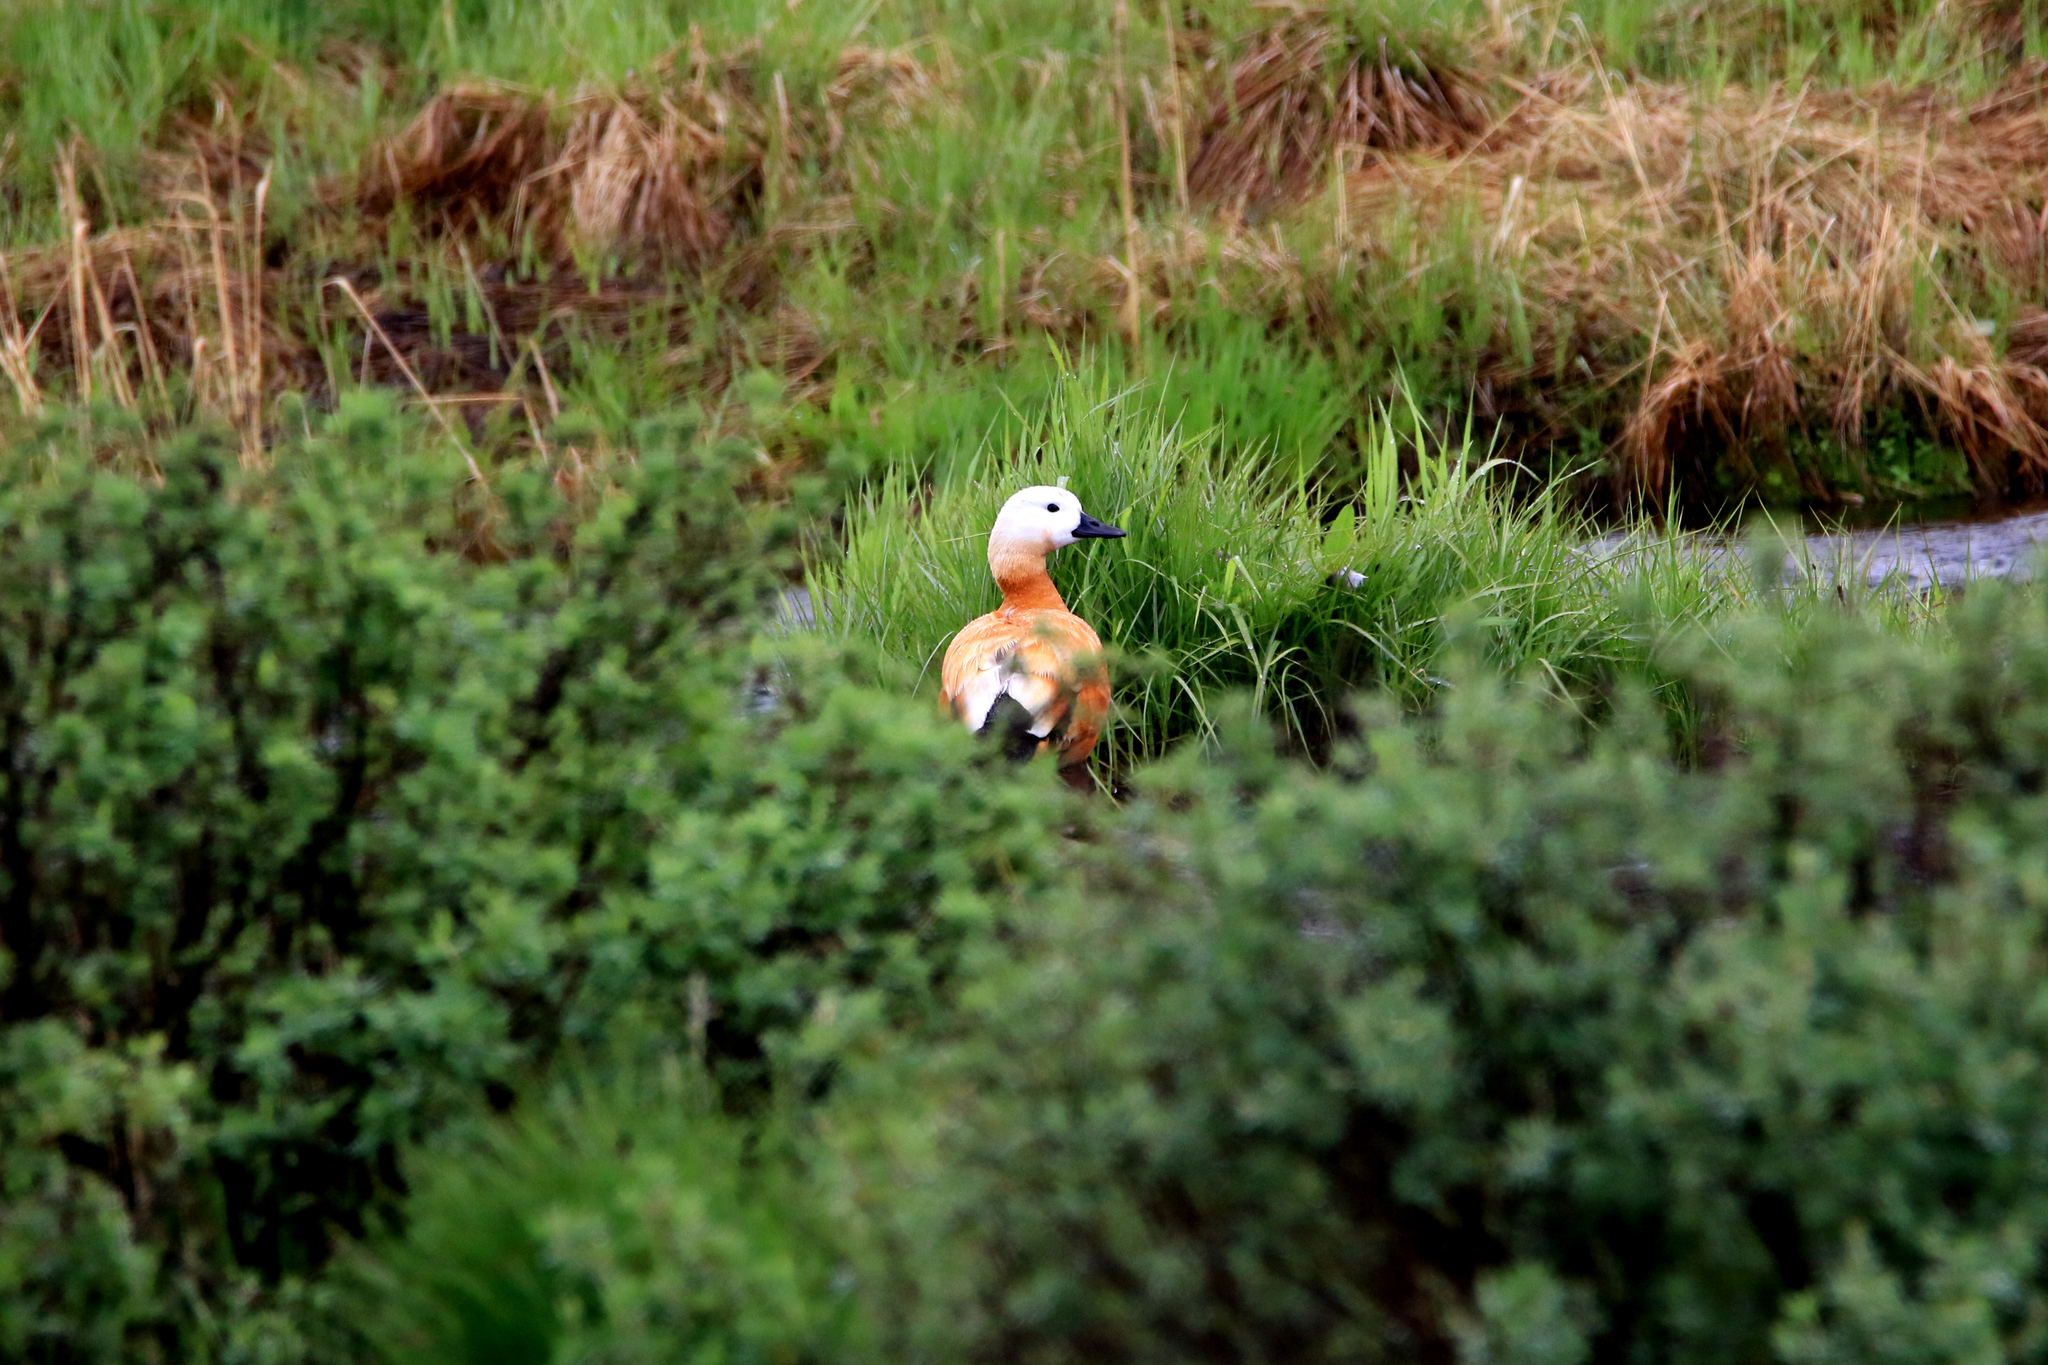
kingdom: Animalia
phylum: Chordata
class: Aves
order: Anseriformes
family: Anatidae
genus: Tadorna
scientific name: Tadorna ferruginea
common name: Ruddy shelduck
